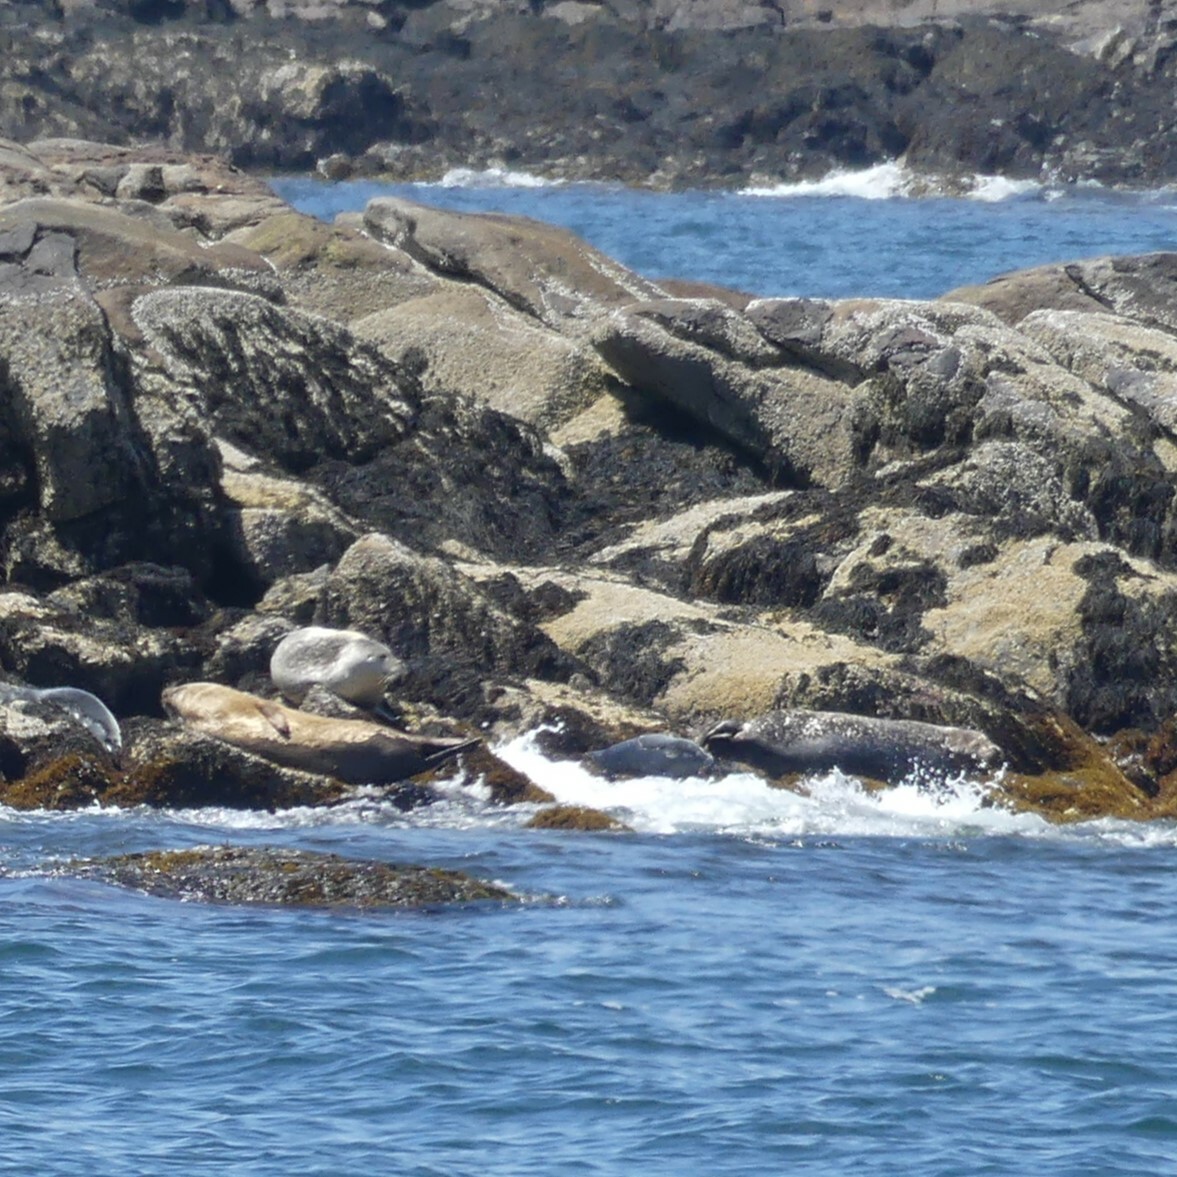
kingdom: Animalia
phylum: Chordata
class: Mammalia
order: Carnivora
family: Phocidae
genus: Phoca
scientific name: Phoca vitulina
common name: Harbor seal
